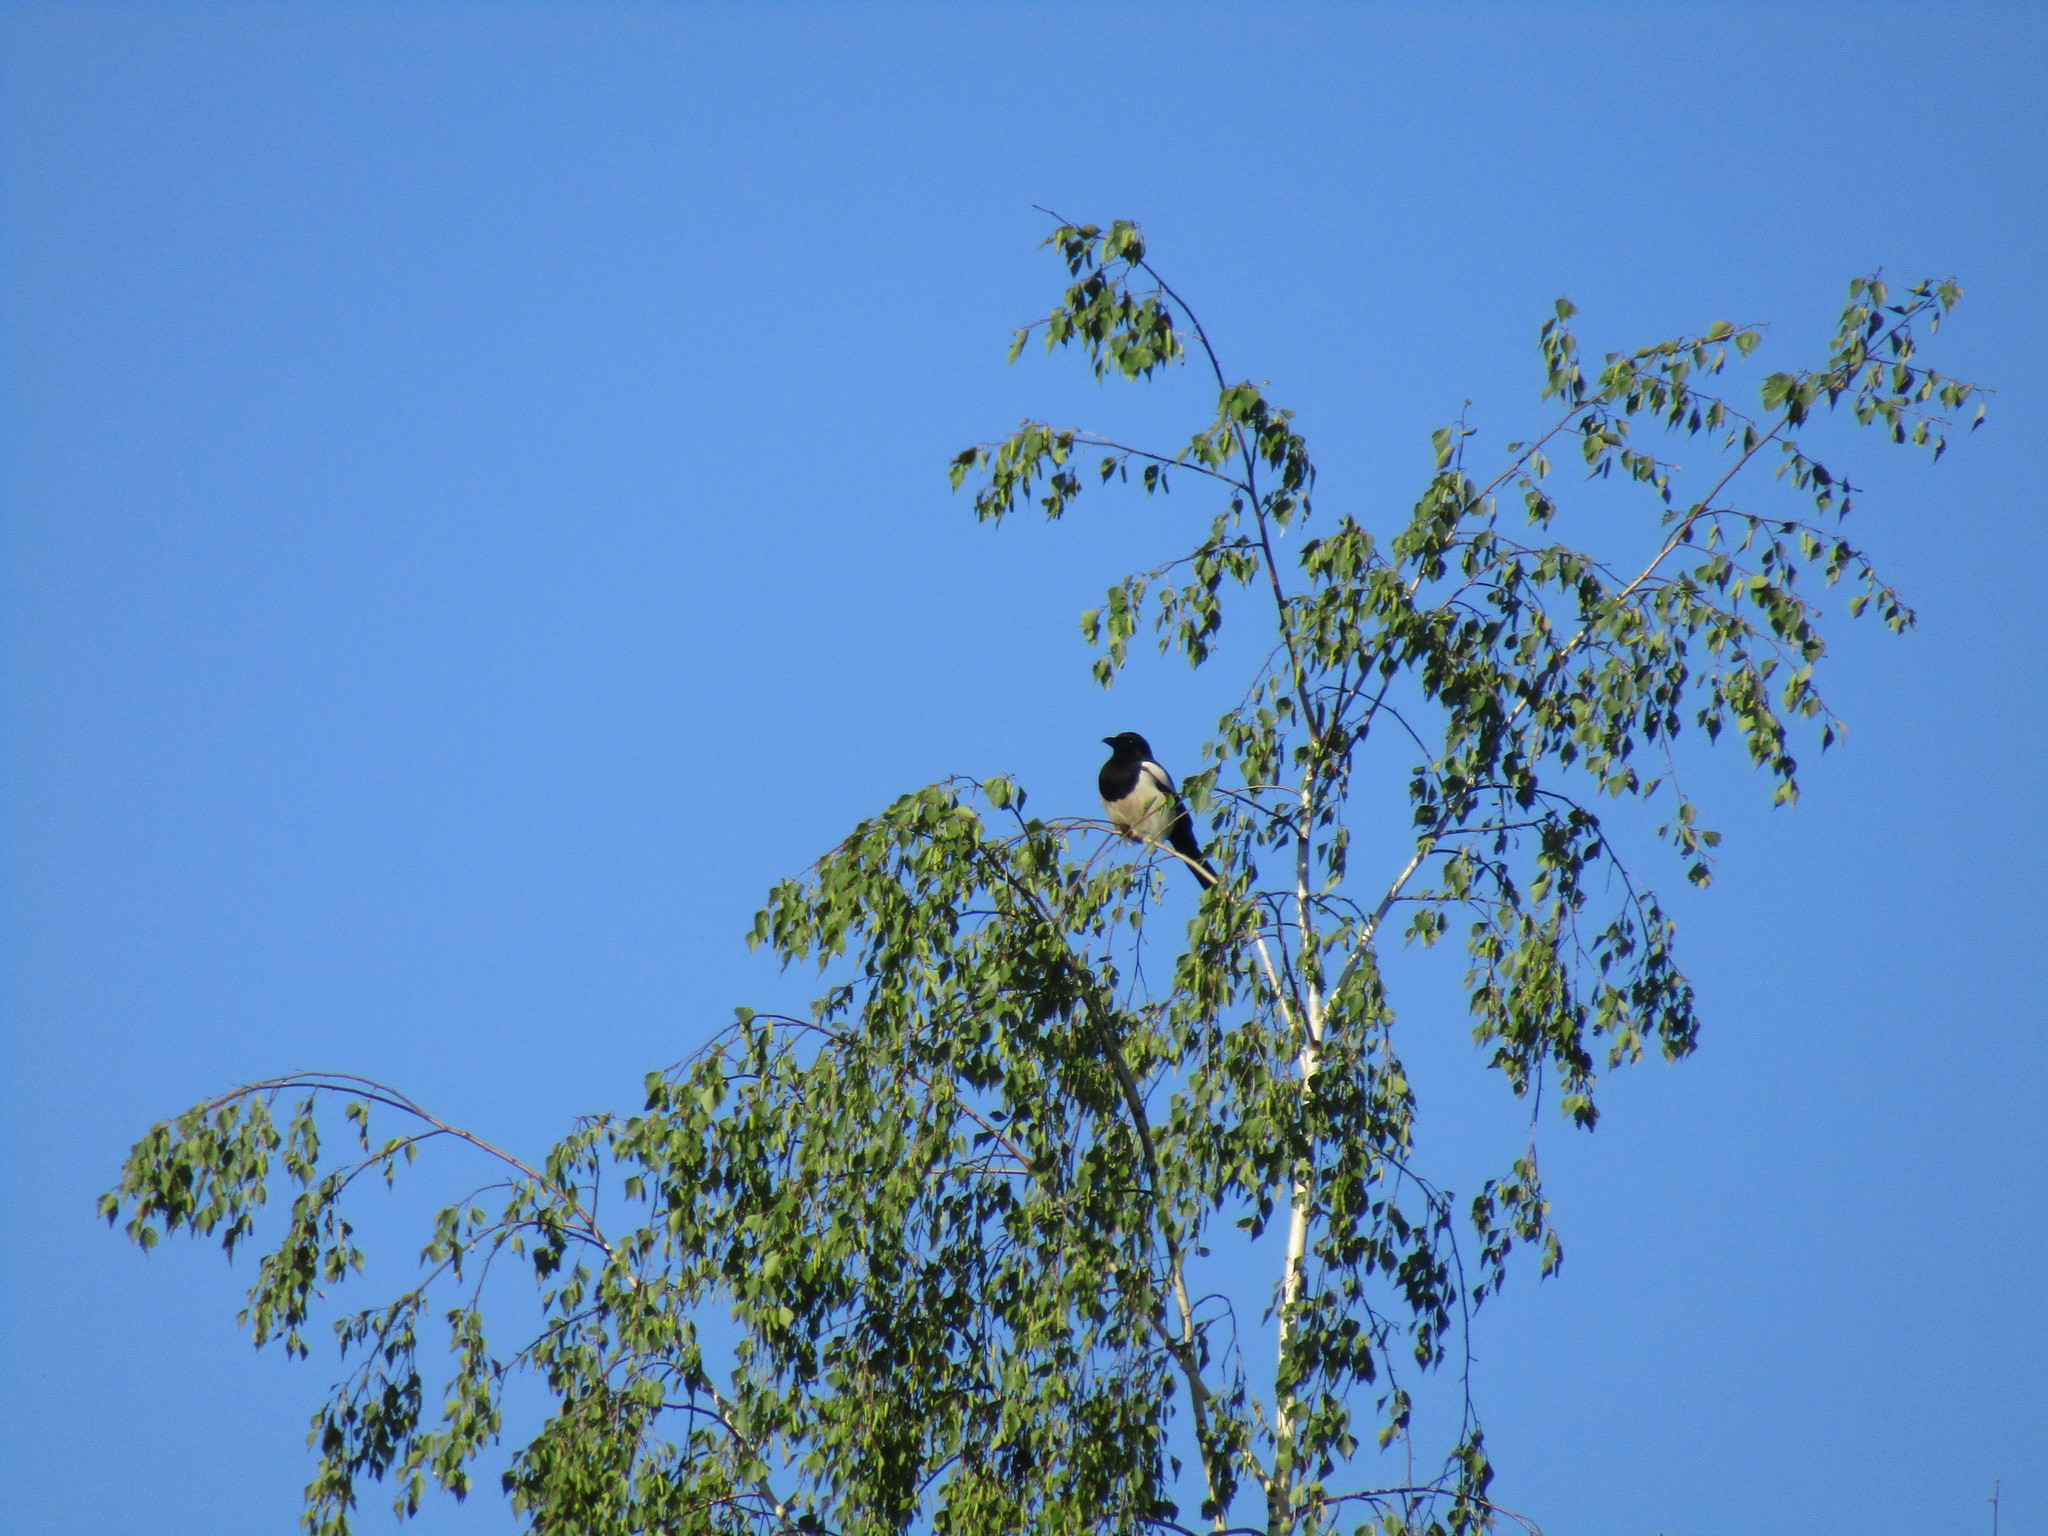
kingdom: Animalia
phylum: Chordata
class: Aves
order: Passeriformes
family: Corvidae
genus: Pica
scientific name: Pica pica
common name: Eurasian magpie
